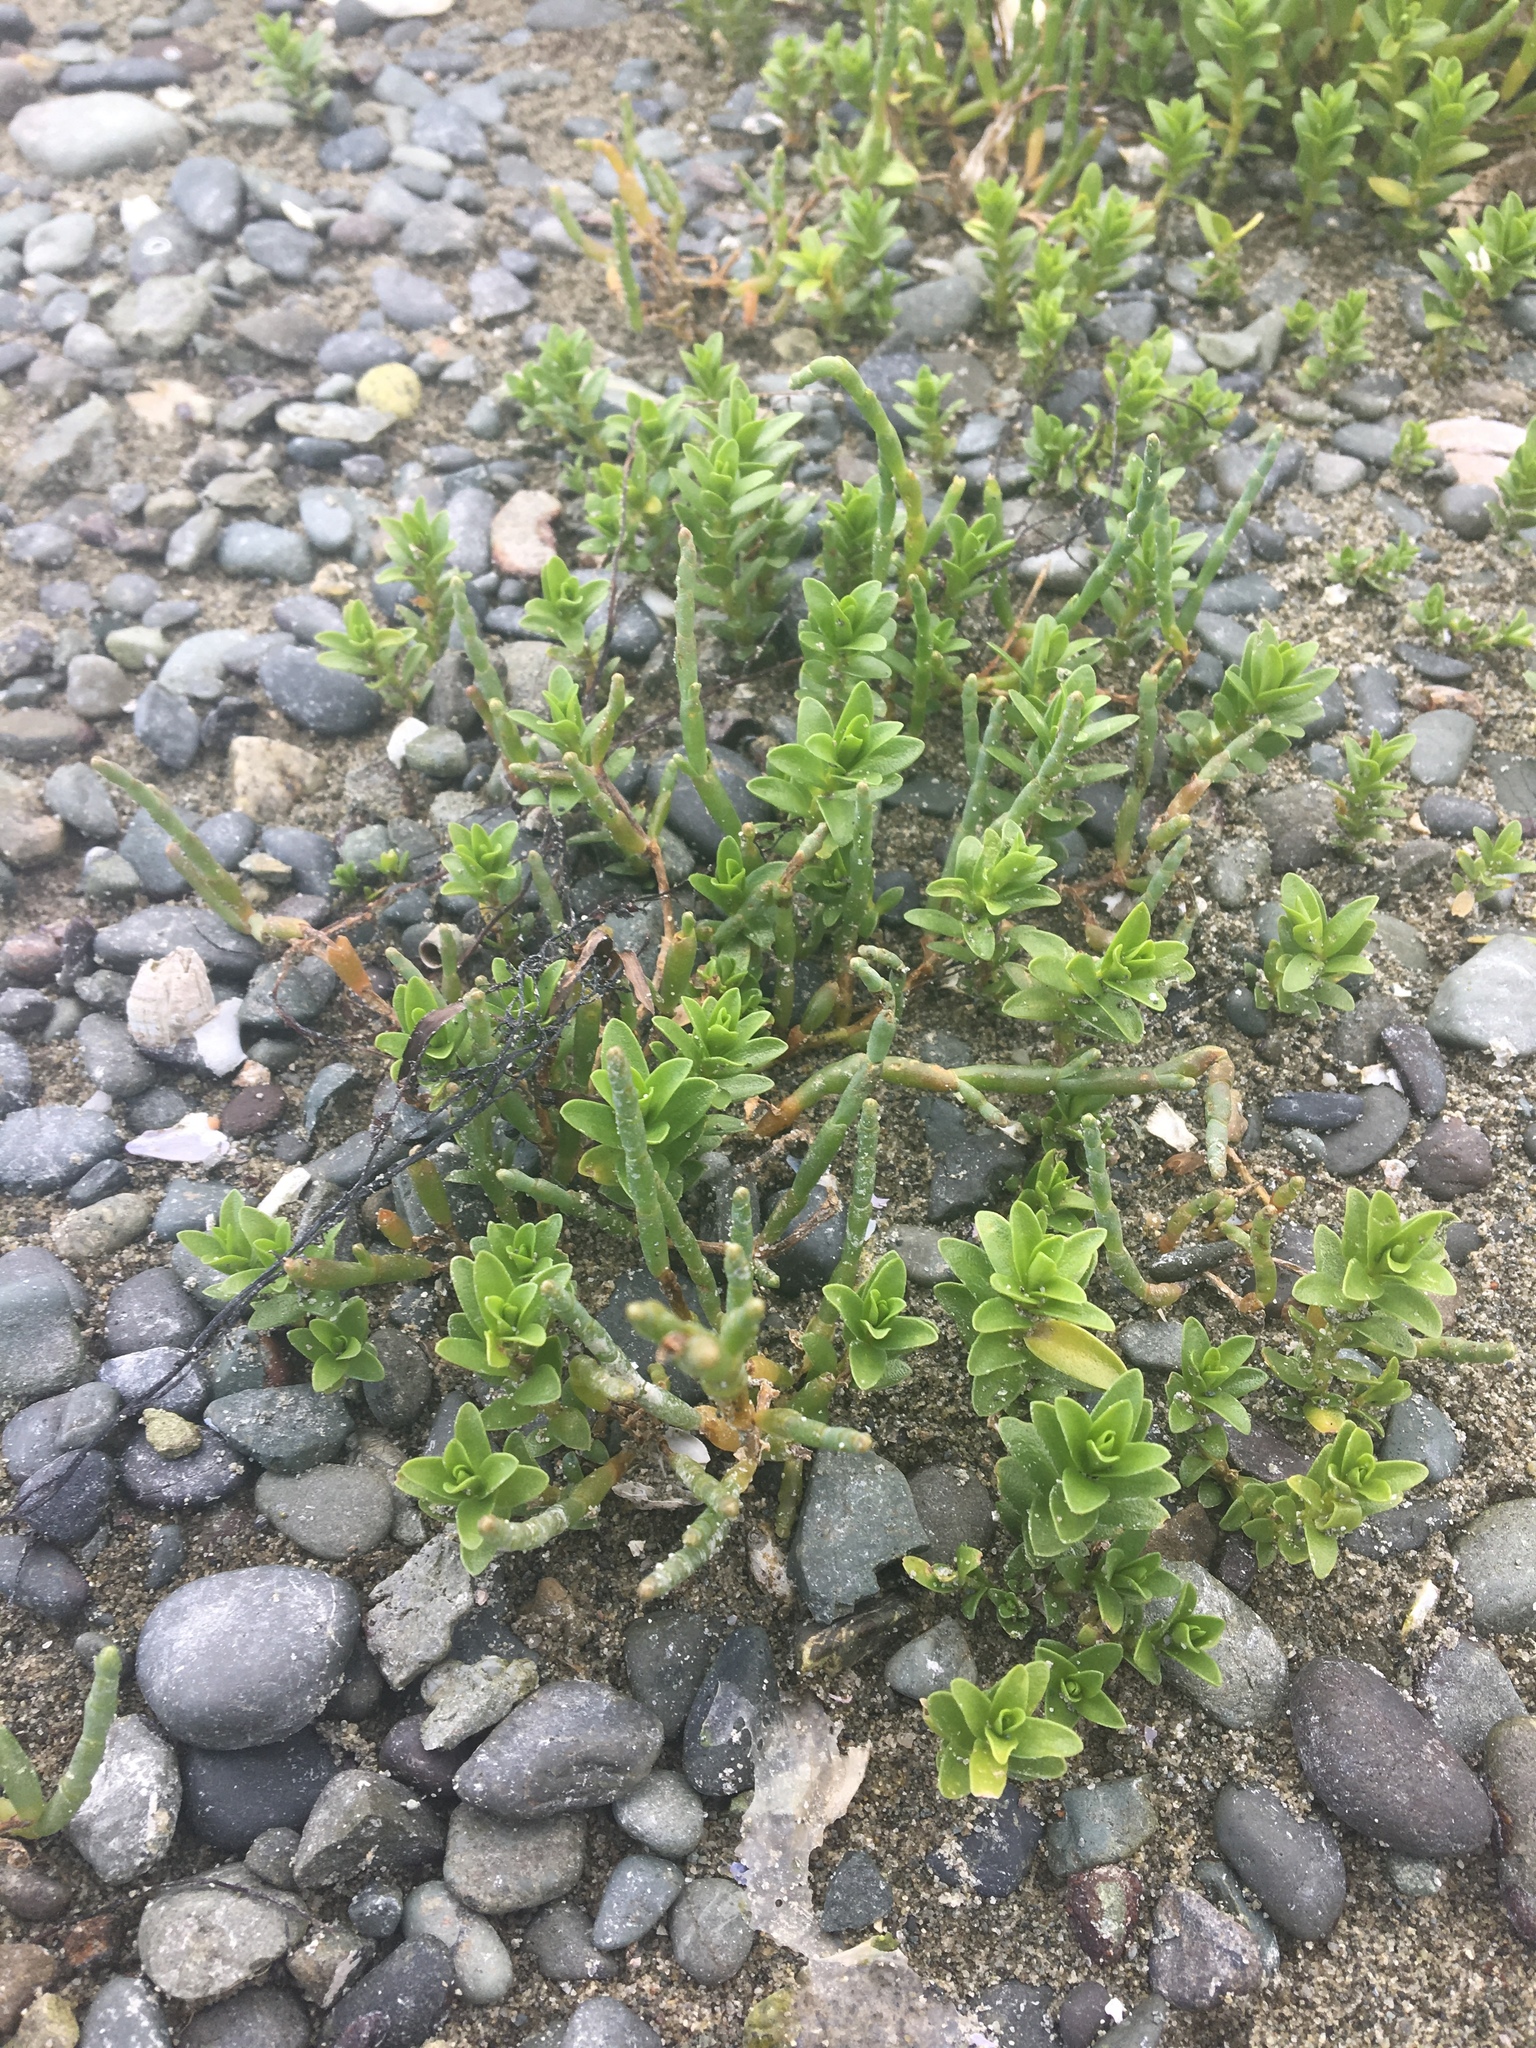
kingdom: Plantae
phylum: Tracheophyta
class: Magnoliopsida
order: Caryophyllales
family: Caryophyllaceae
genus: Honckenya
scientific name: Honckenya peploides
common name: Sea sandwort
